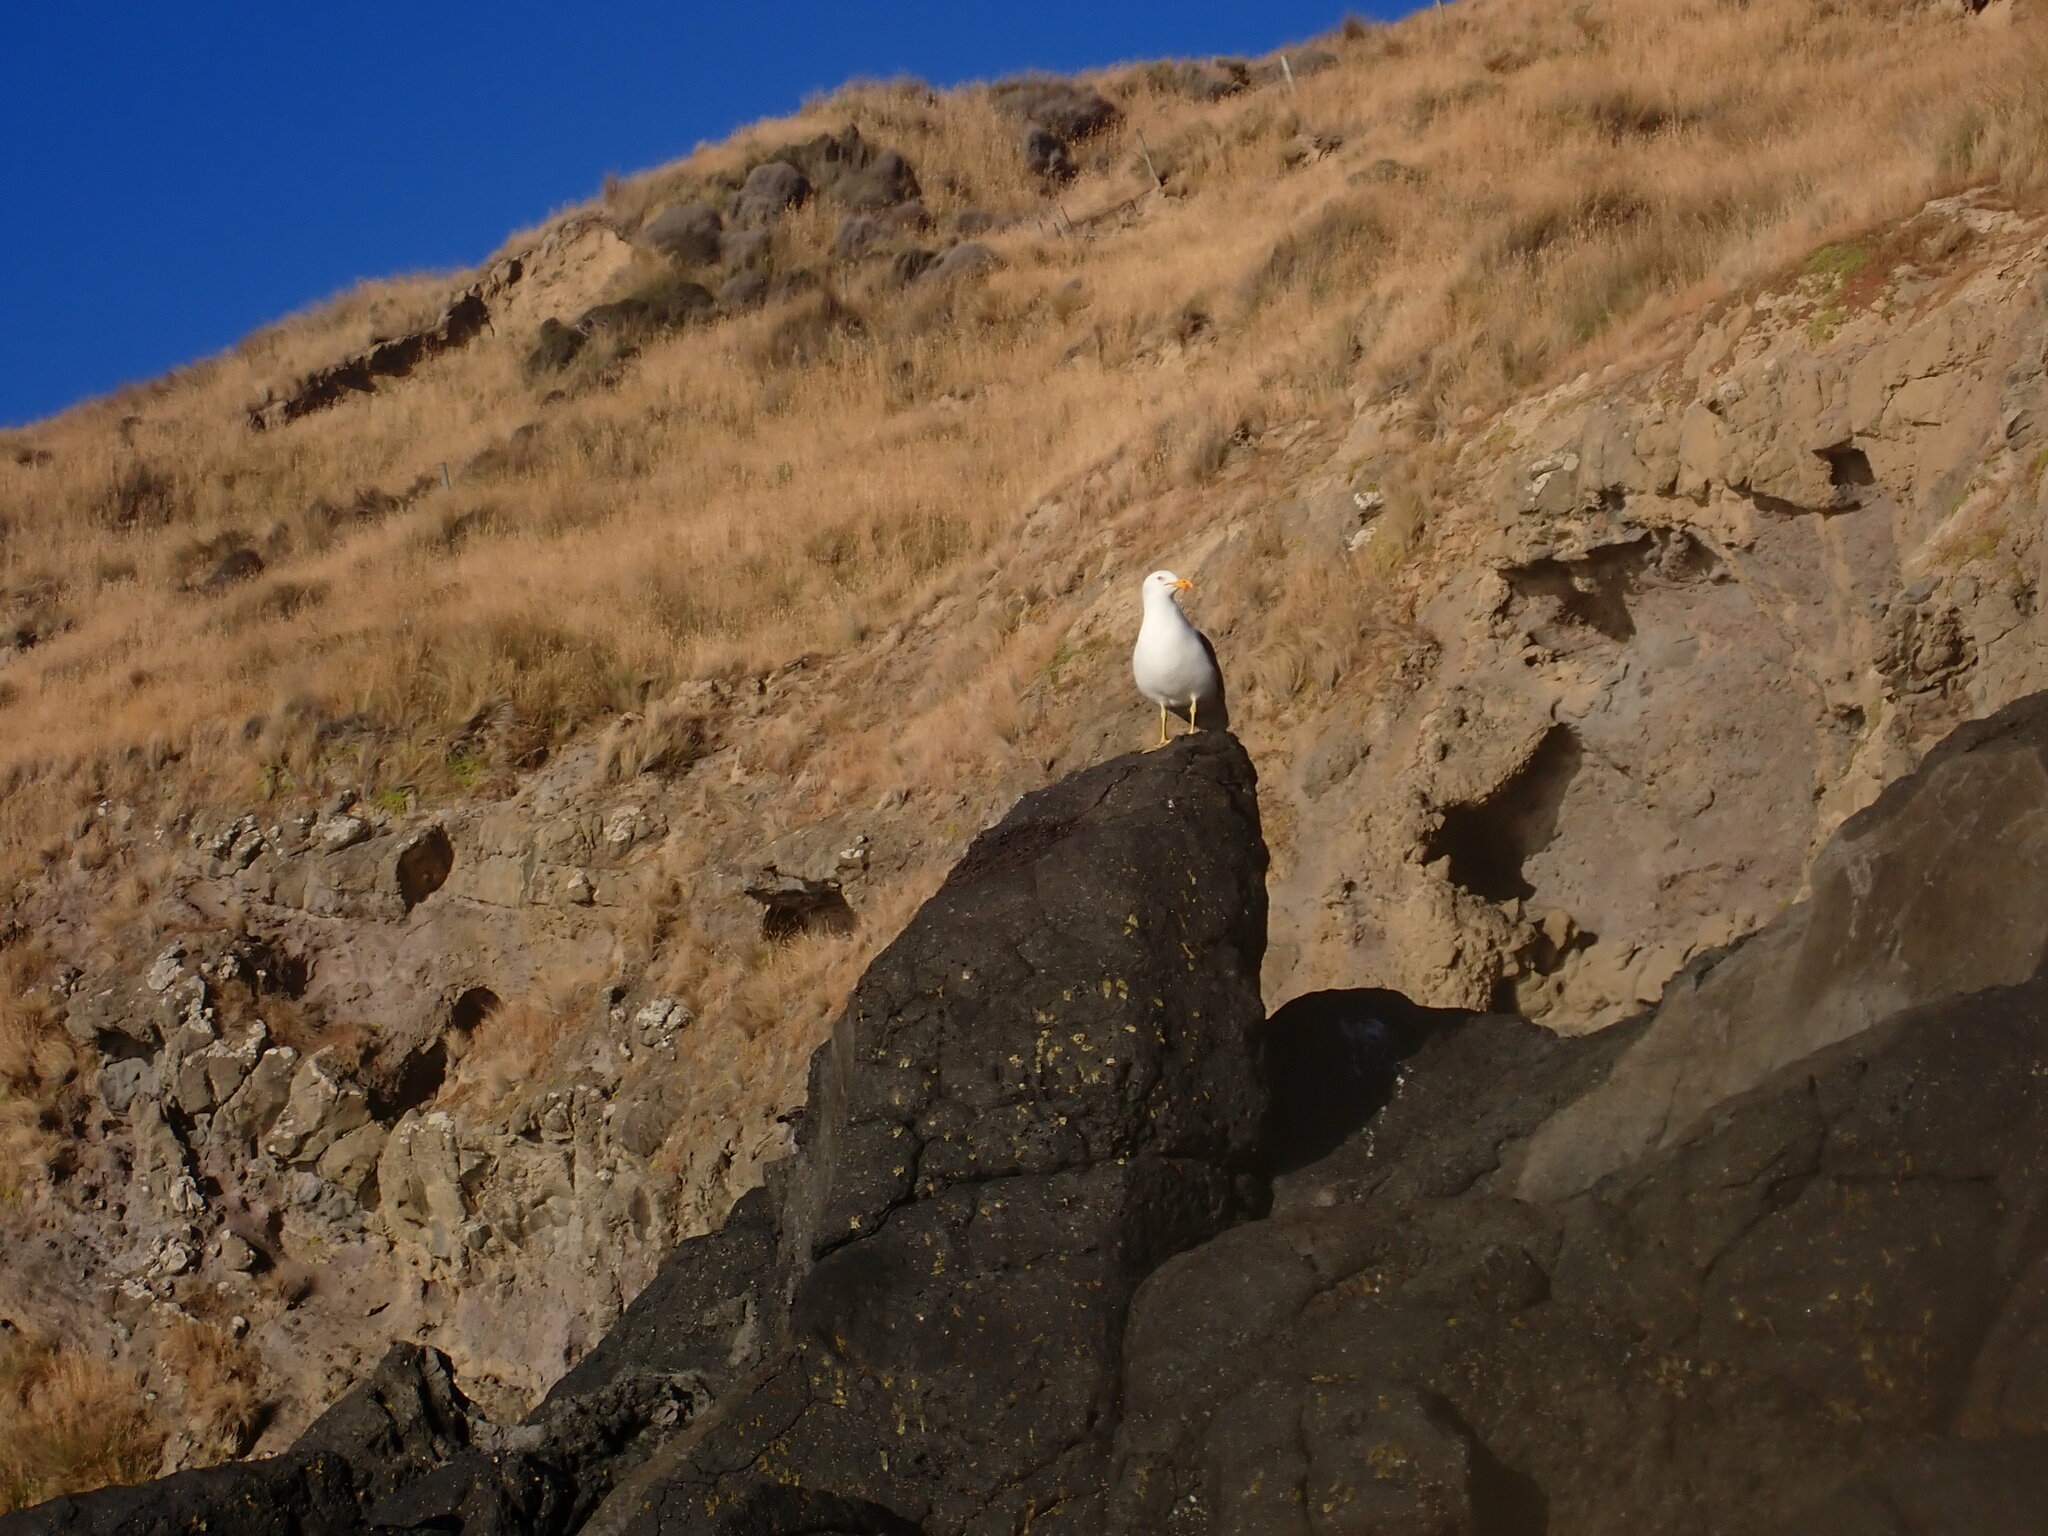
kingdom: Animalia
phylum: Chordata
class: Aves
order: Charadriiformes
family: Laridae
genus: Larus
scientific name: Larus dominicanus
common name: Kelp gull
